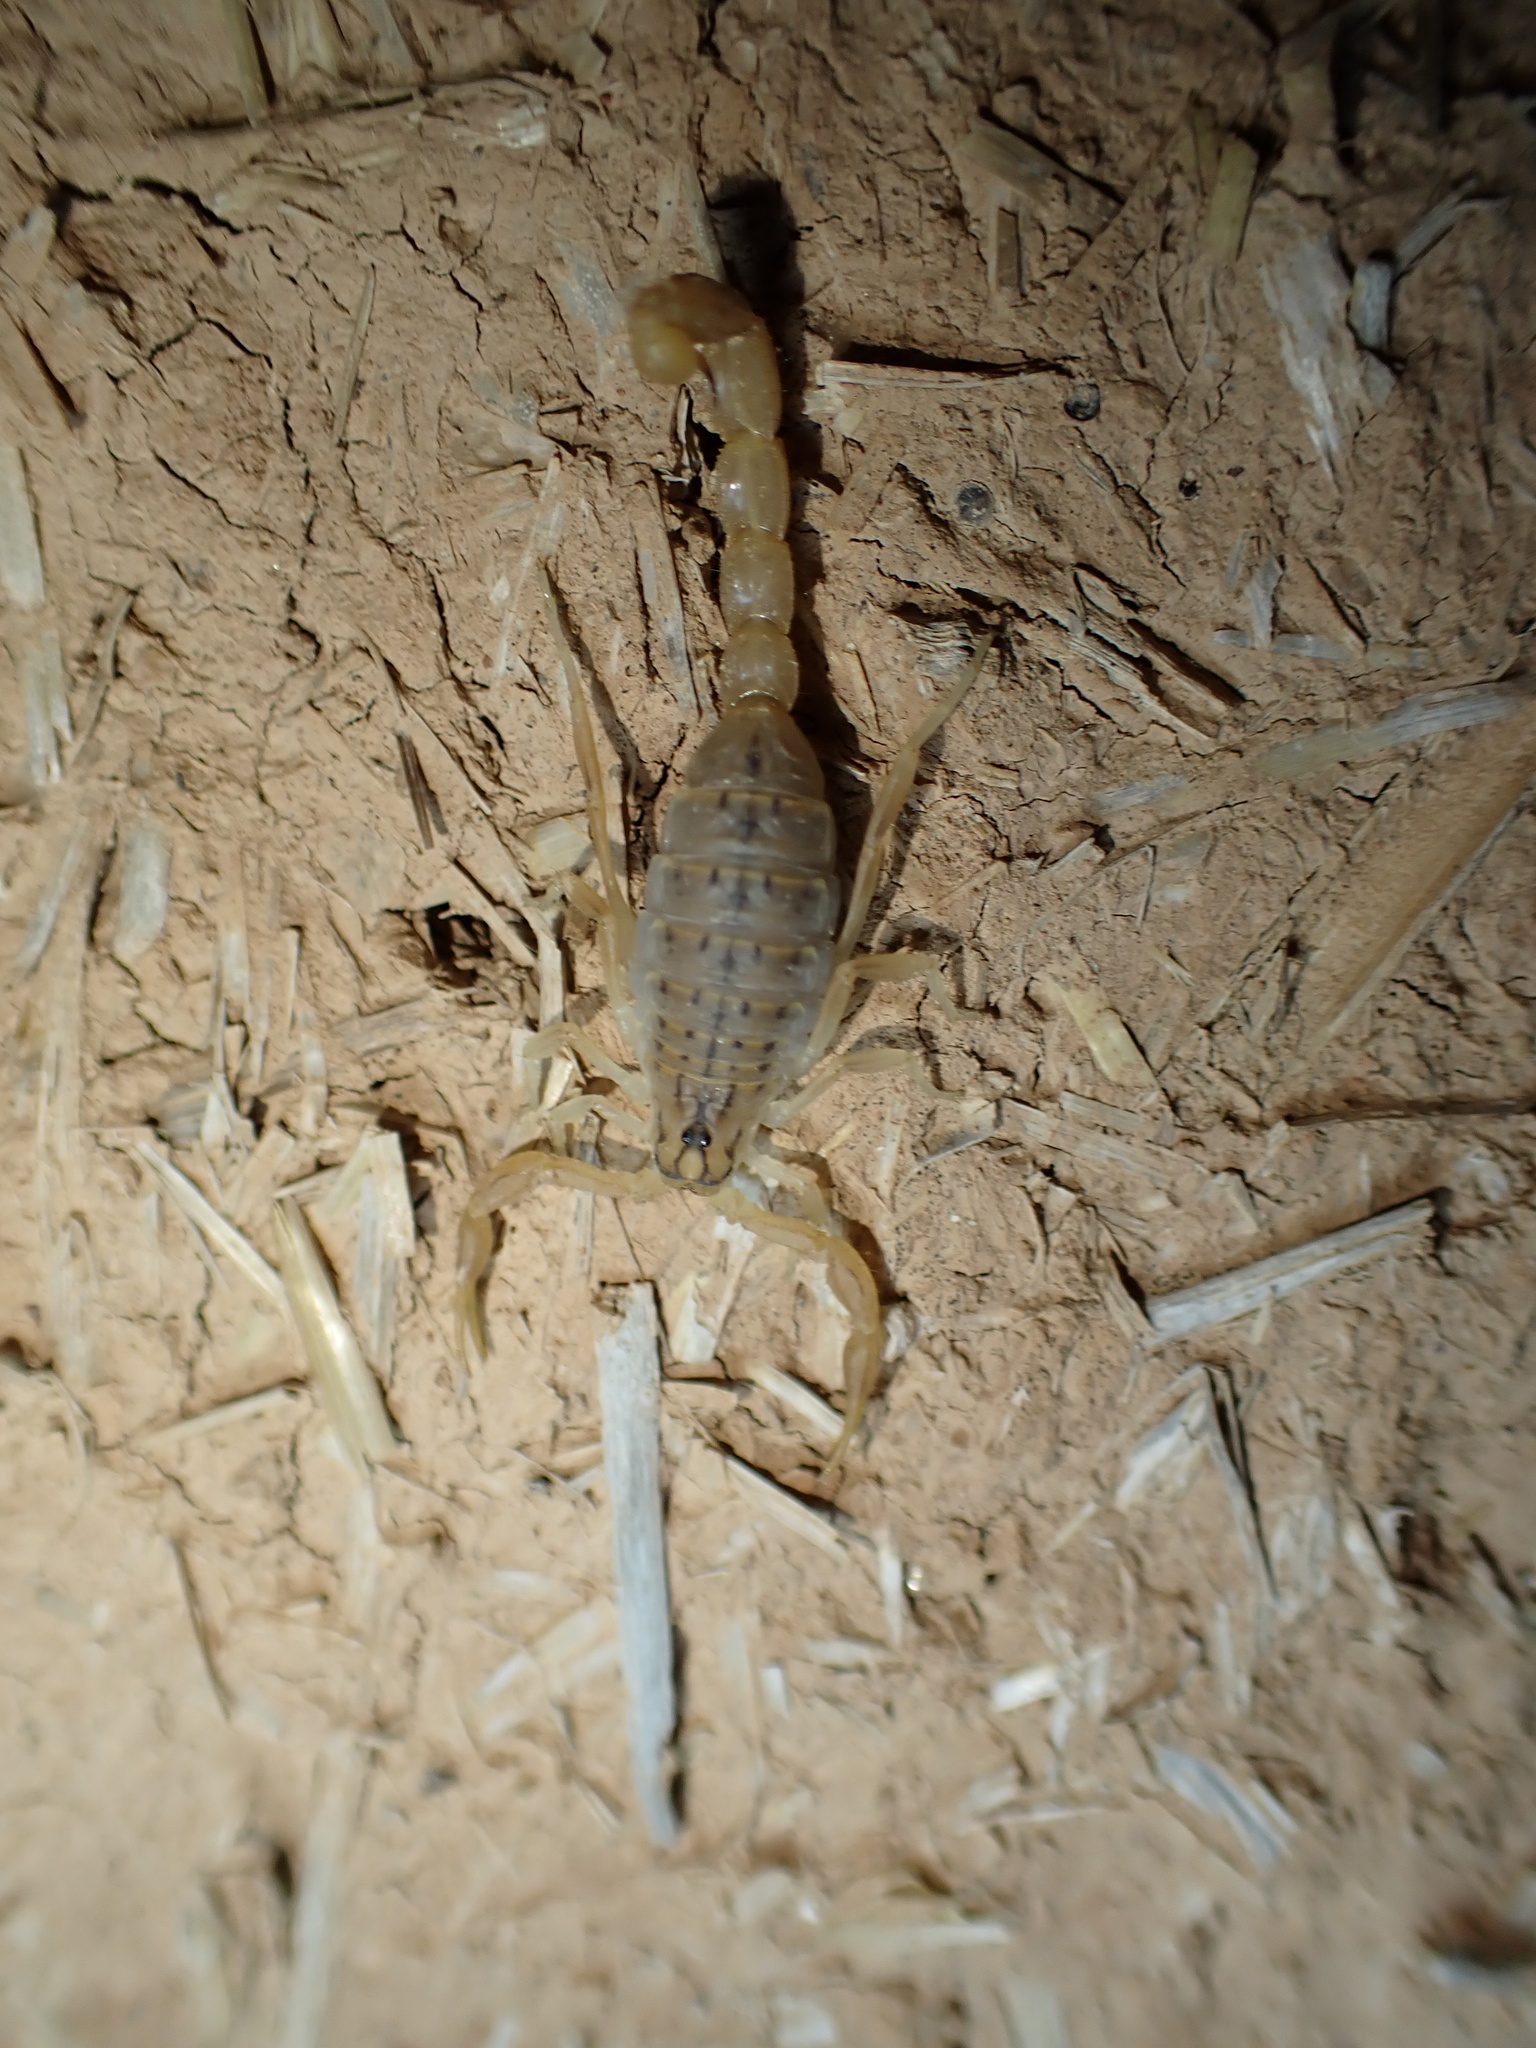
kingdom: Animalia
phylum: Arthropoda
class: Arachnida
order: Scorpiones
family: Buthidae
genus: Mesobuthus
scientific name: Mesobuthus crucittii
